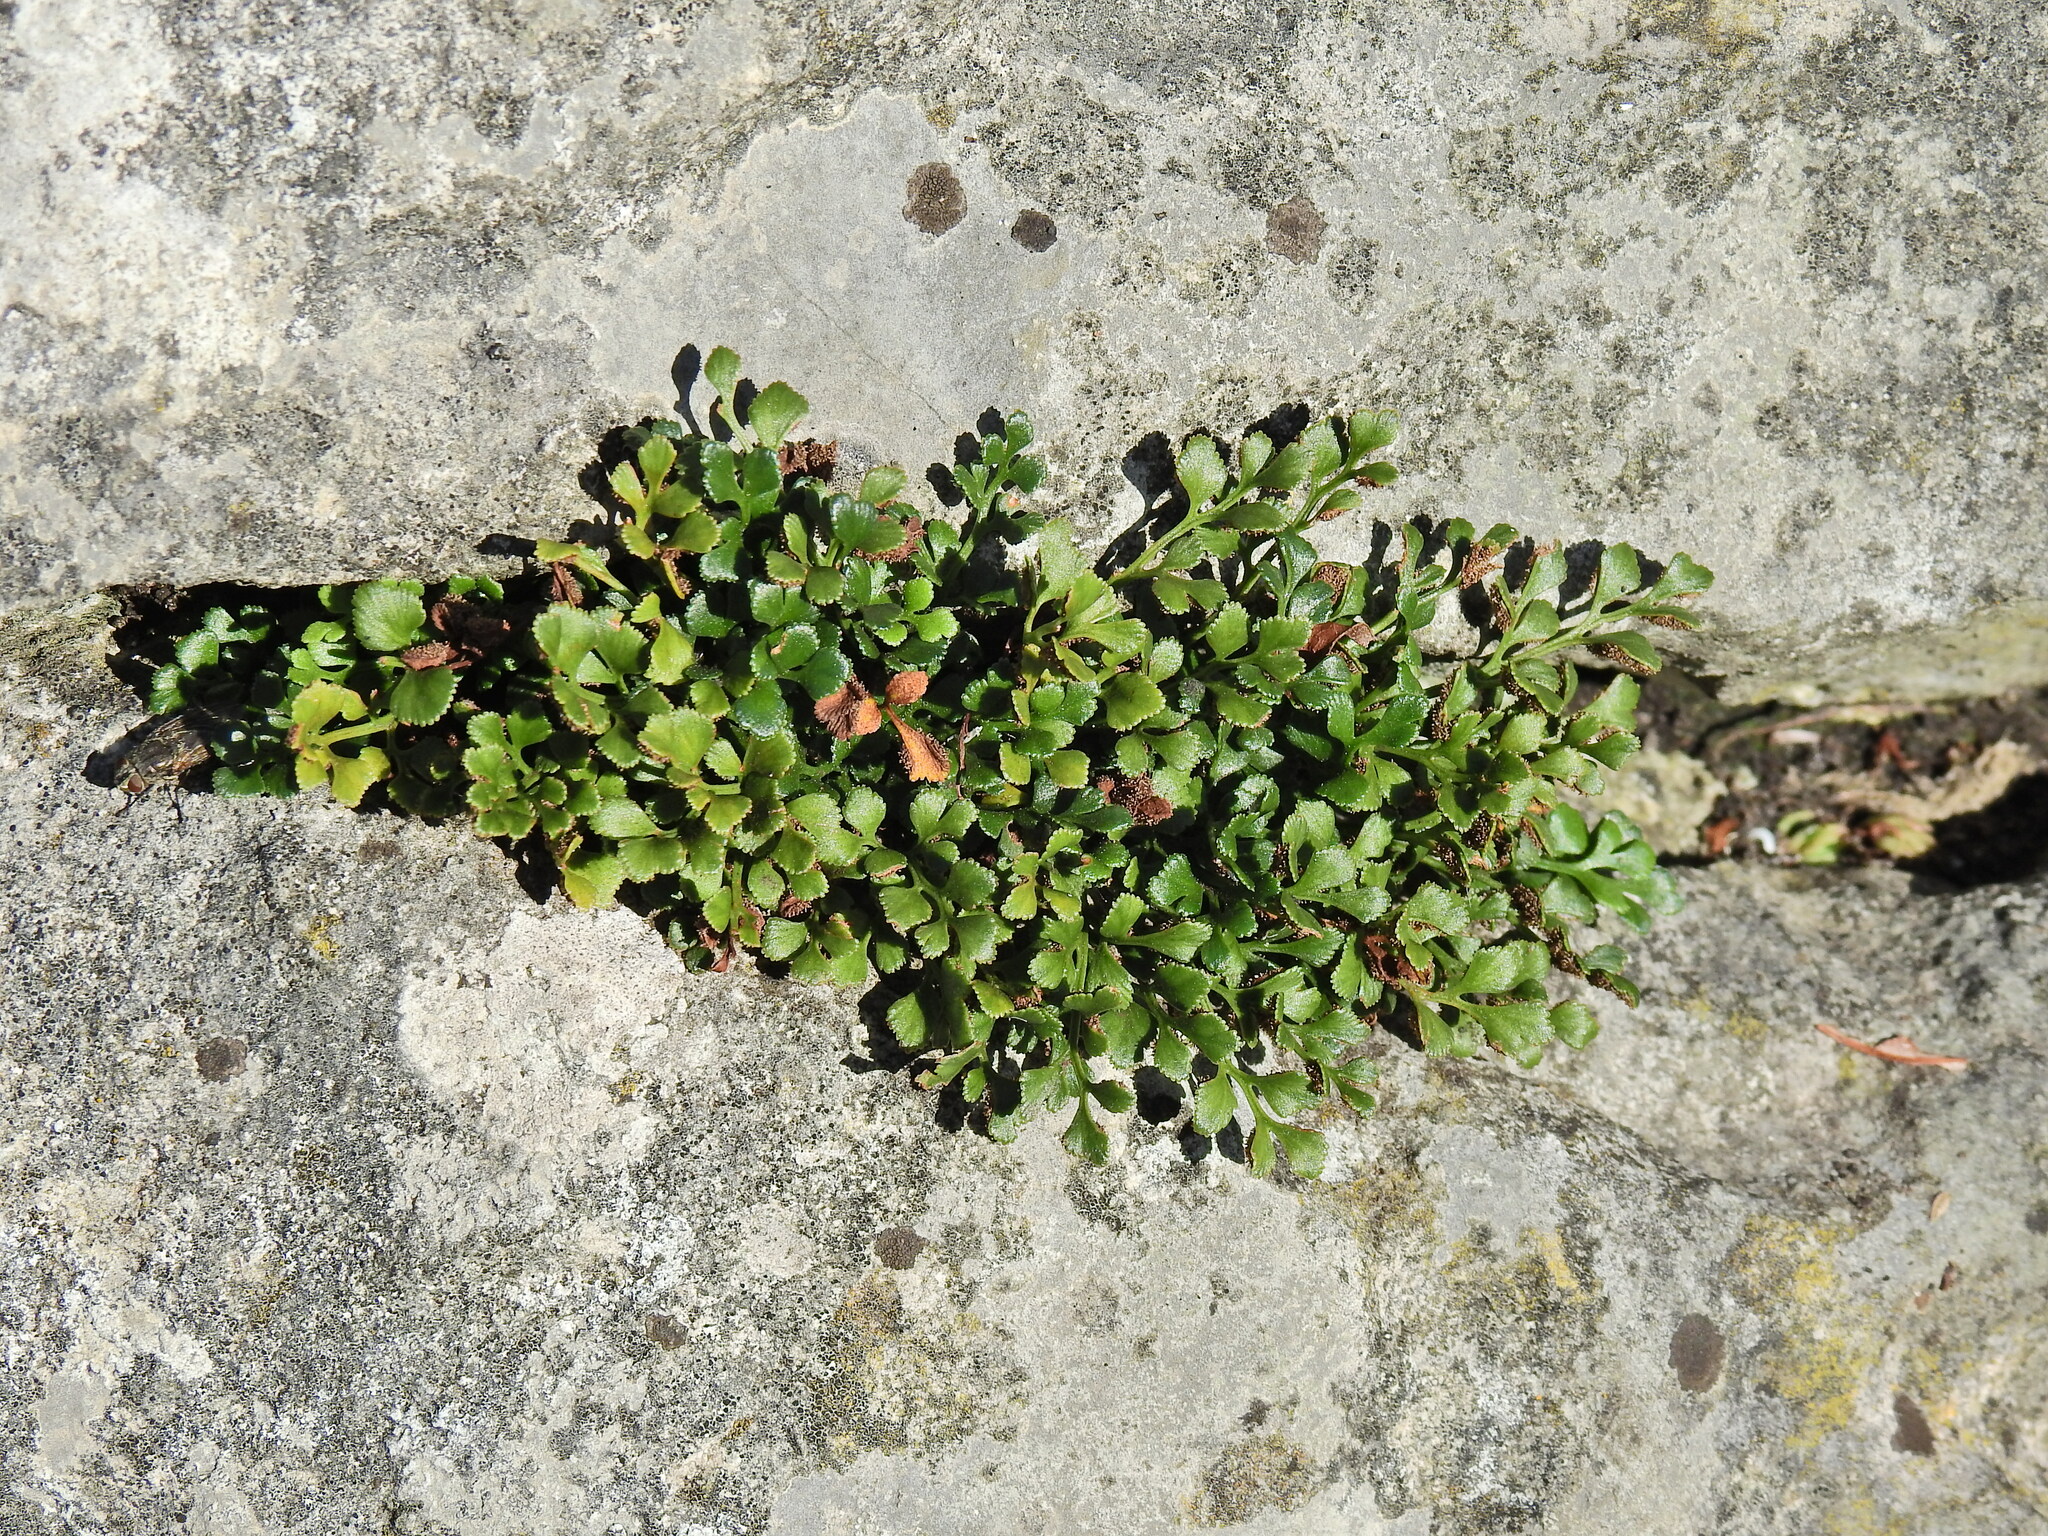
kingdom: Plantae
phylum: Tracheophyta
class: Polypodiopsida
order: Polypodiales
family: Aspleniaceae
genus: Asplenium
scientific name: Asplenium ruta-muraria
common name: Wall-rue
